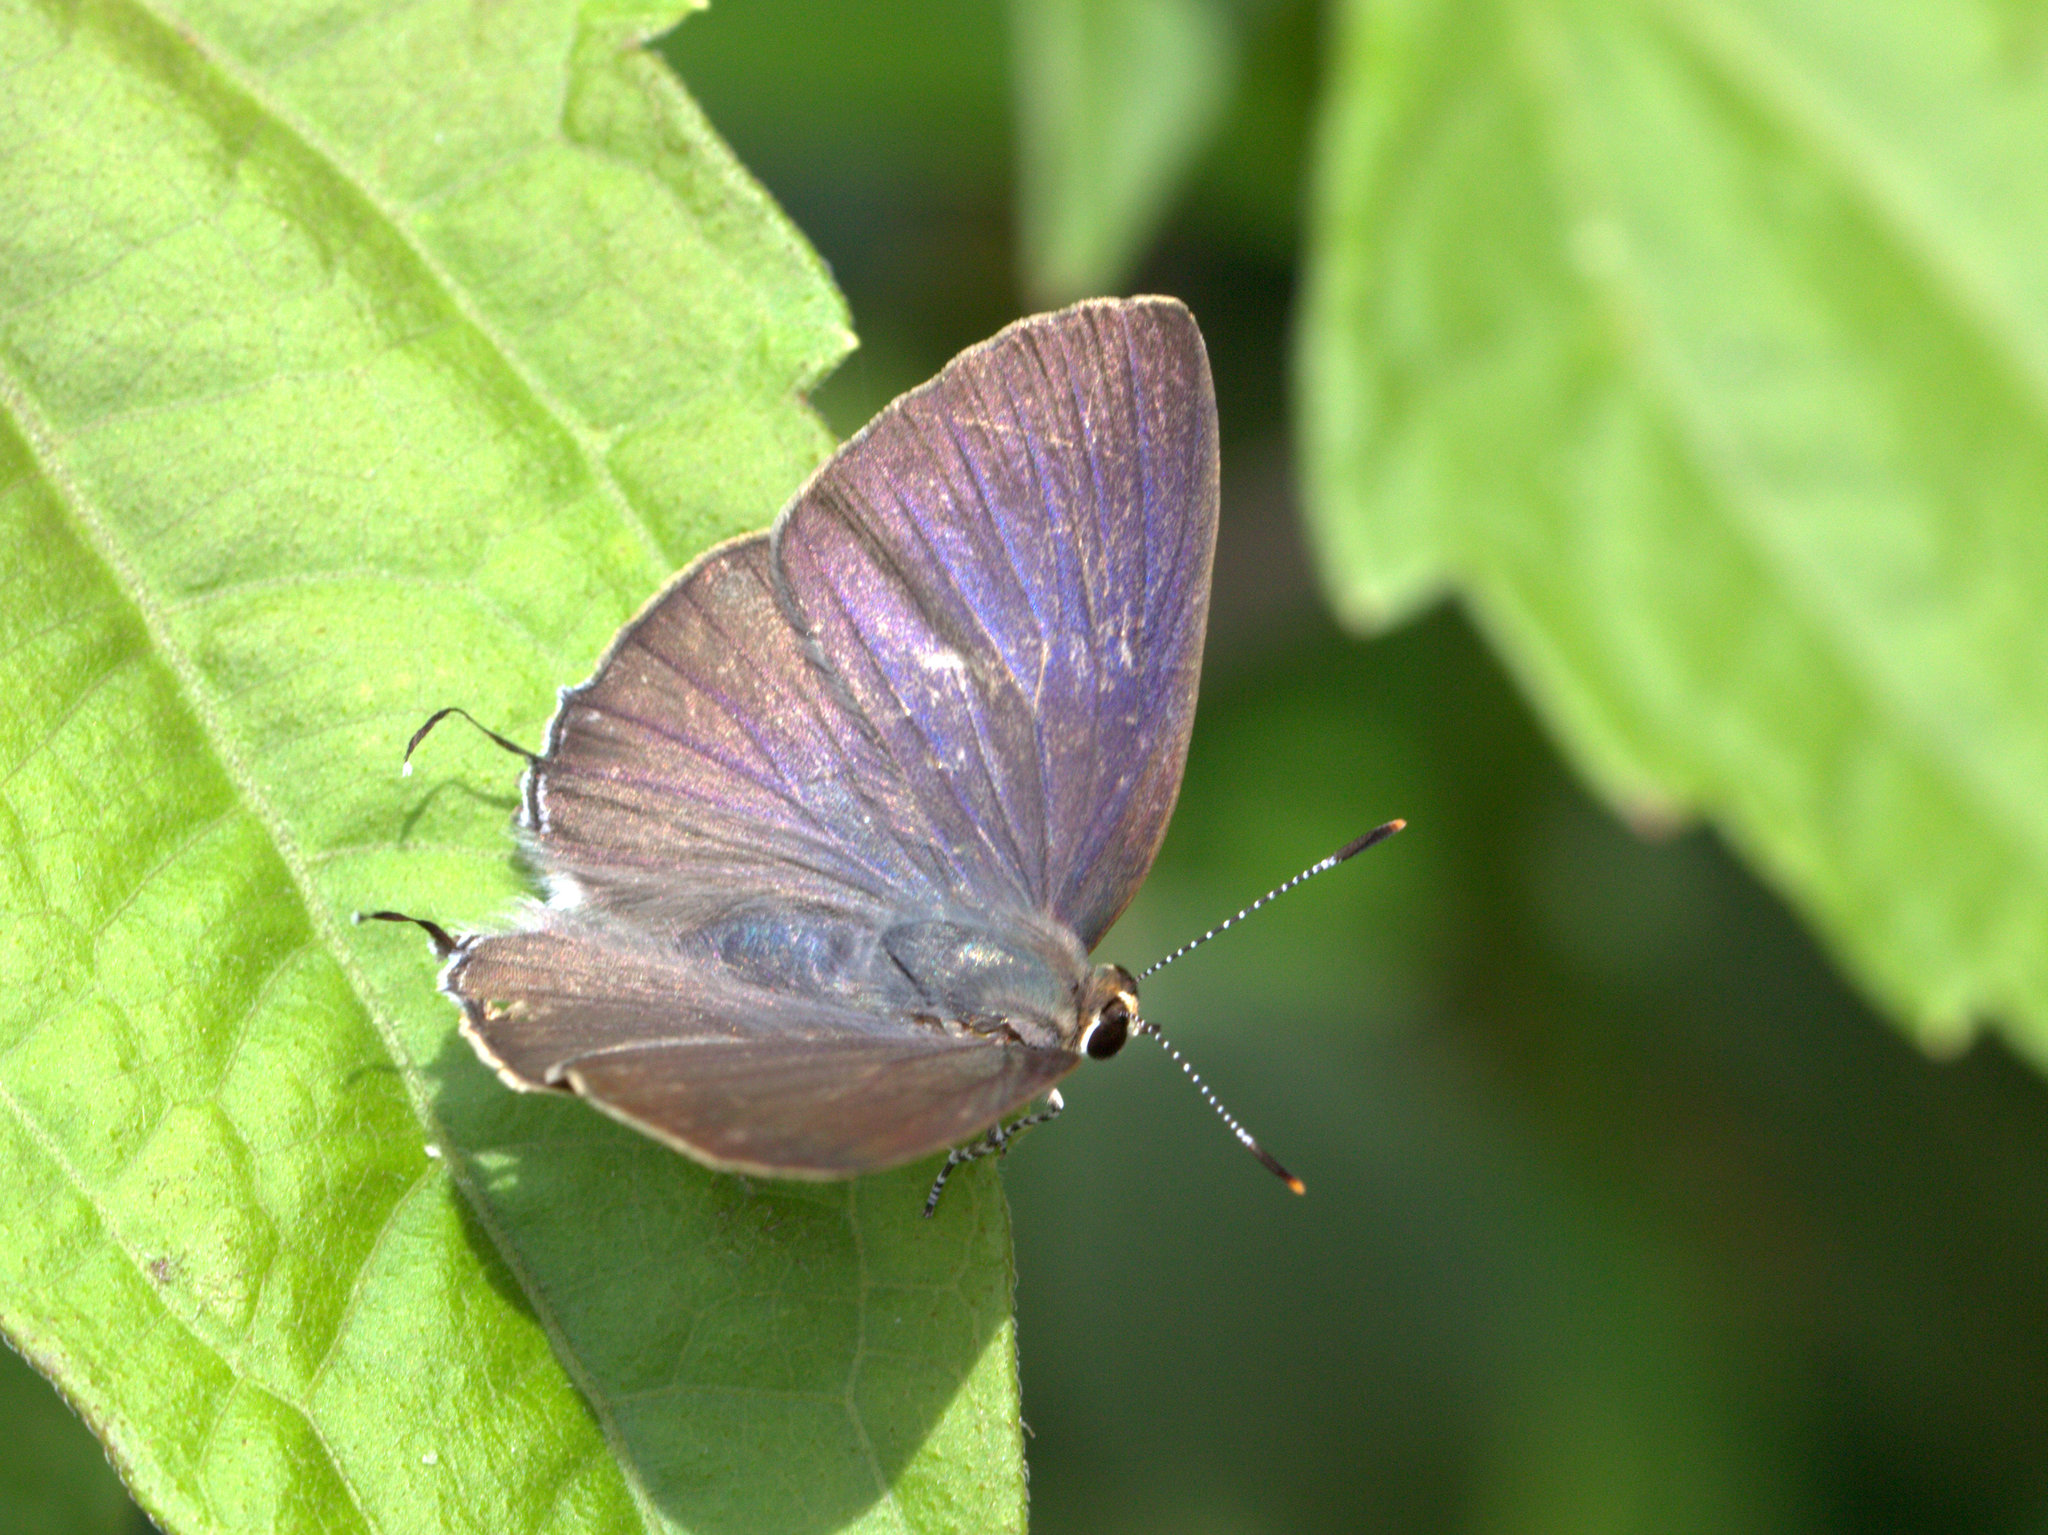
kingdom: Animalia
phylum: Arthropoda
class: Insecta
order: Lepidoptera
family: Lycaenidae
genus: Rapala
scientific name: Rapala manea
